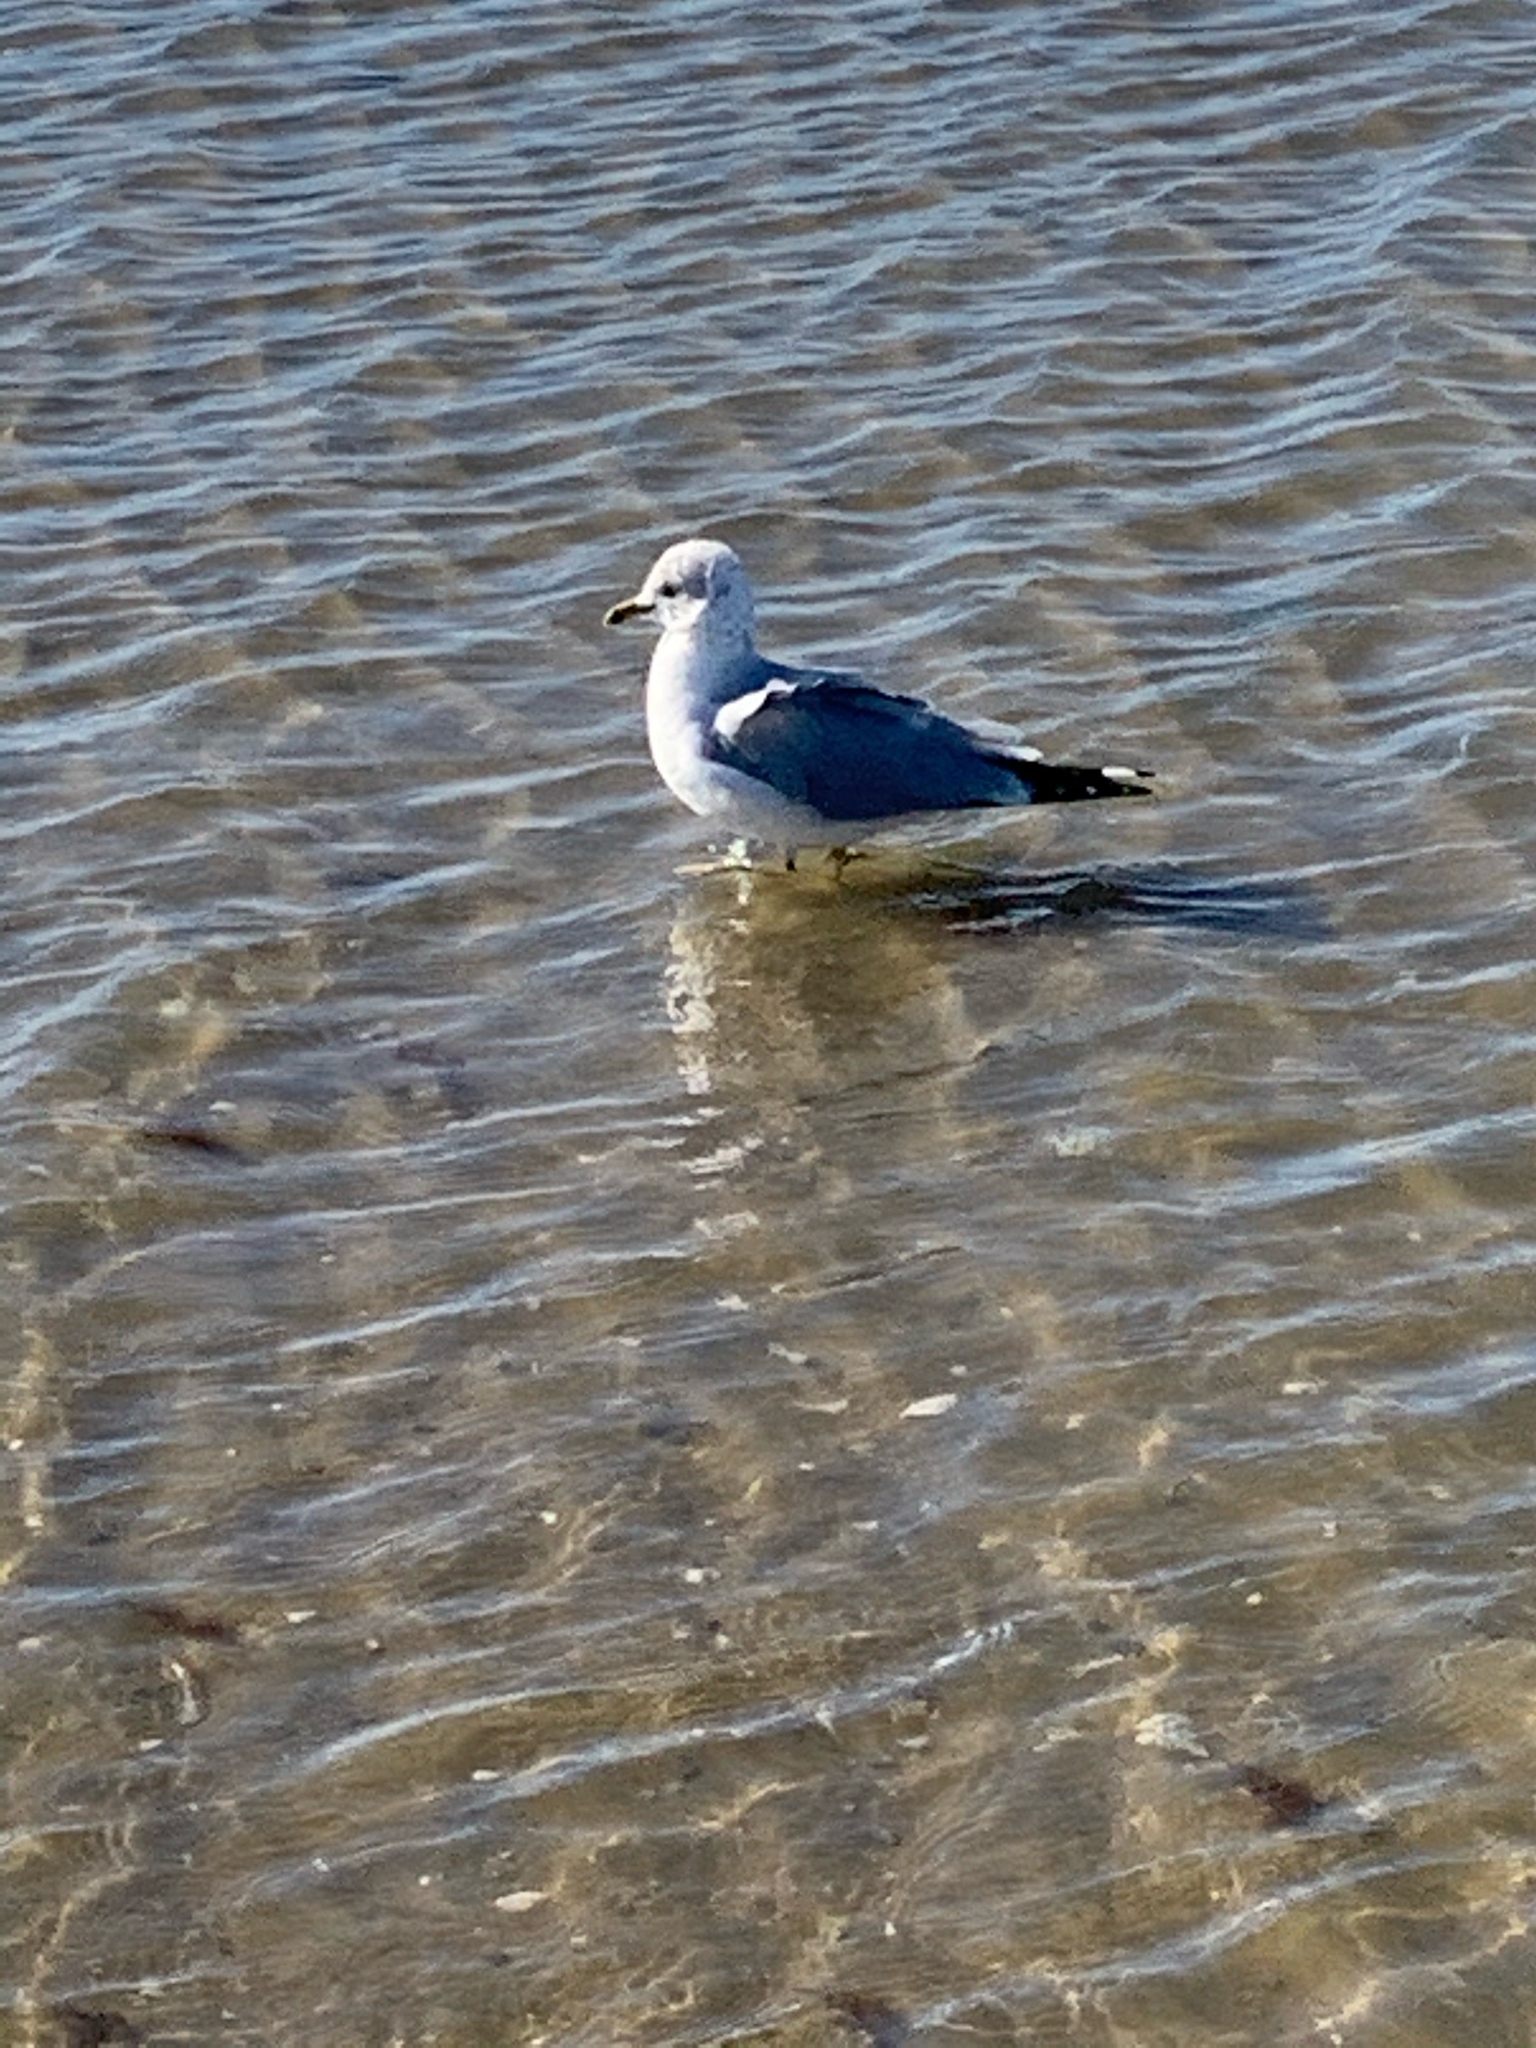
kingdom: Animalia
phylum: Chordata
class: Aves
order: Charadriiformes
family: Laridae
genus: Larus
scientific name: Larus delawarensis
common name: Ring-billed gull
